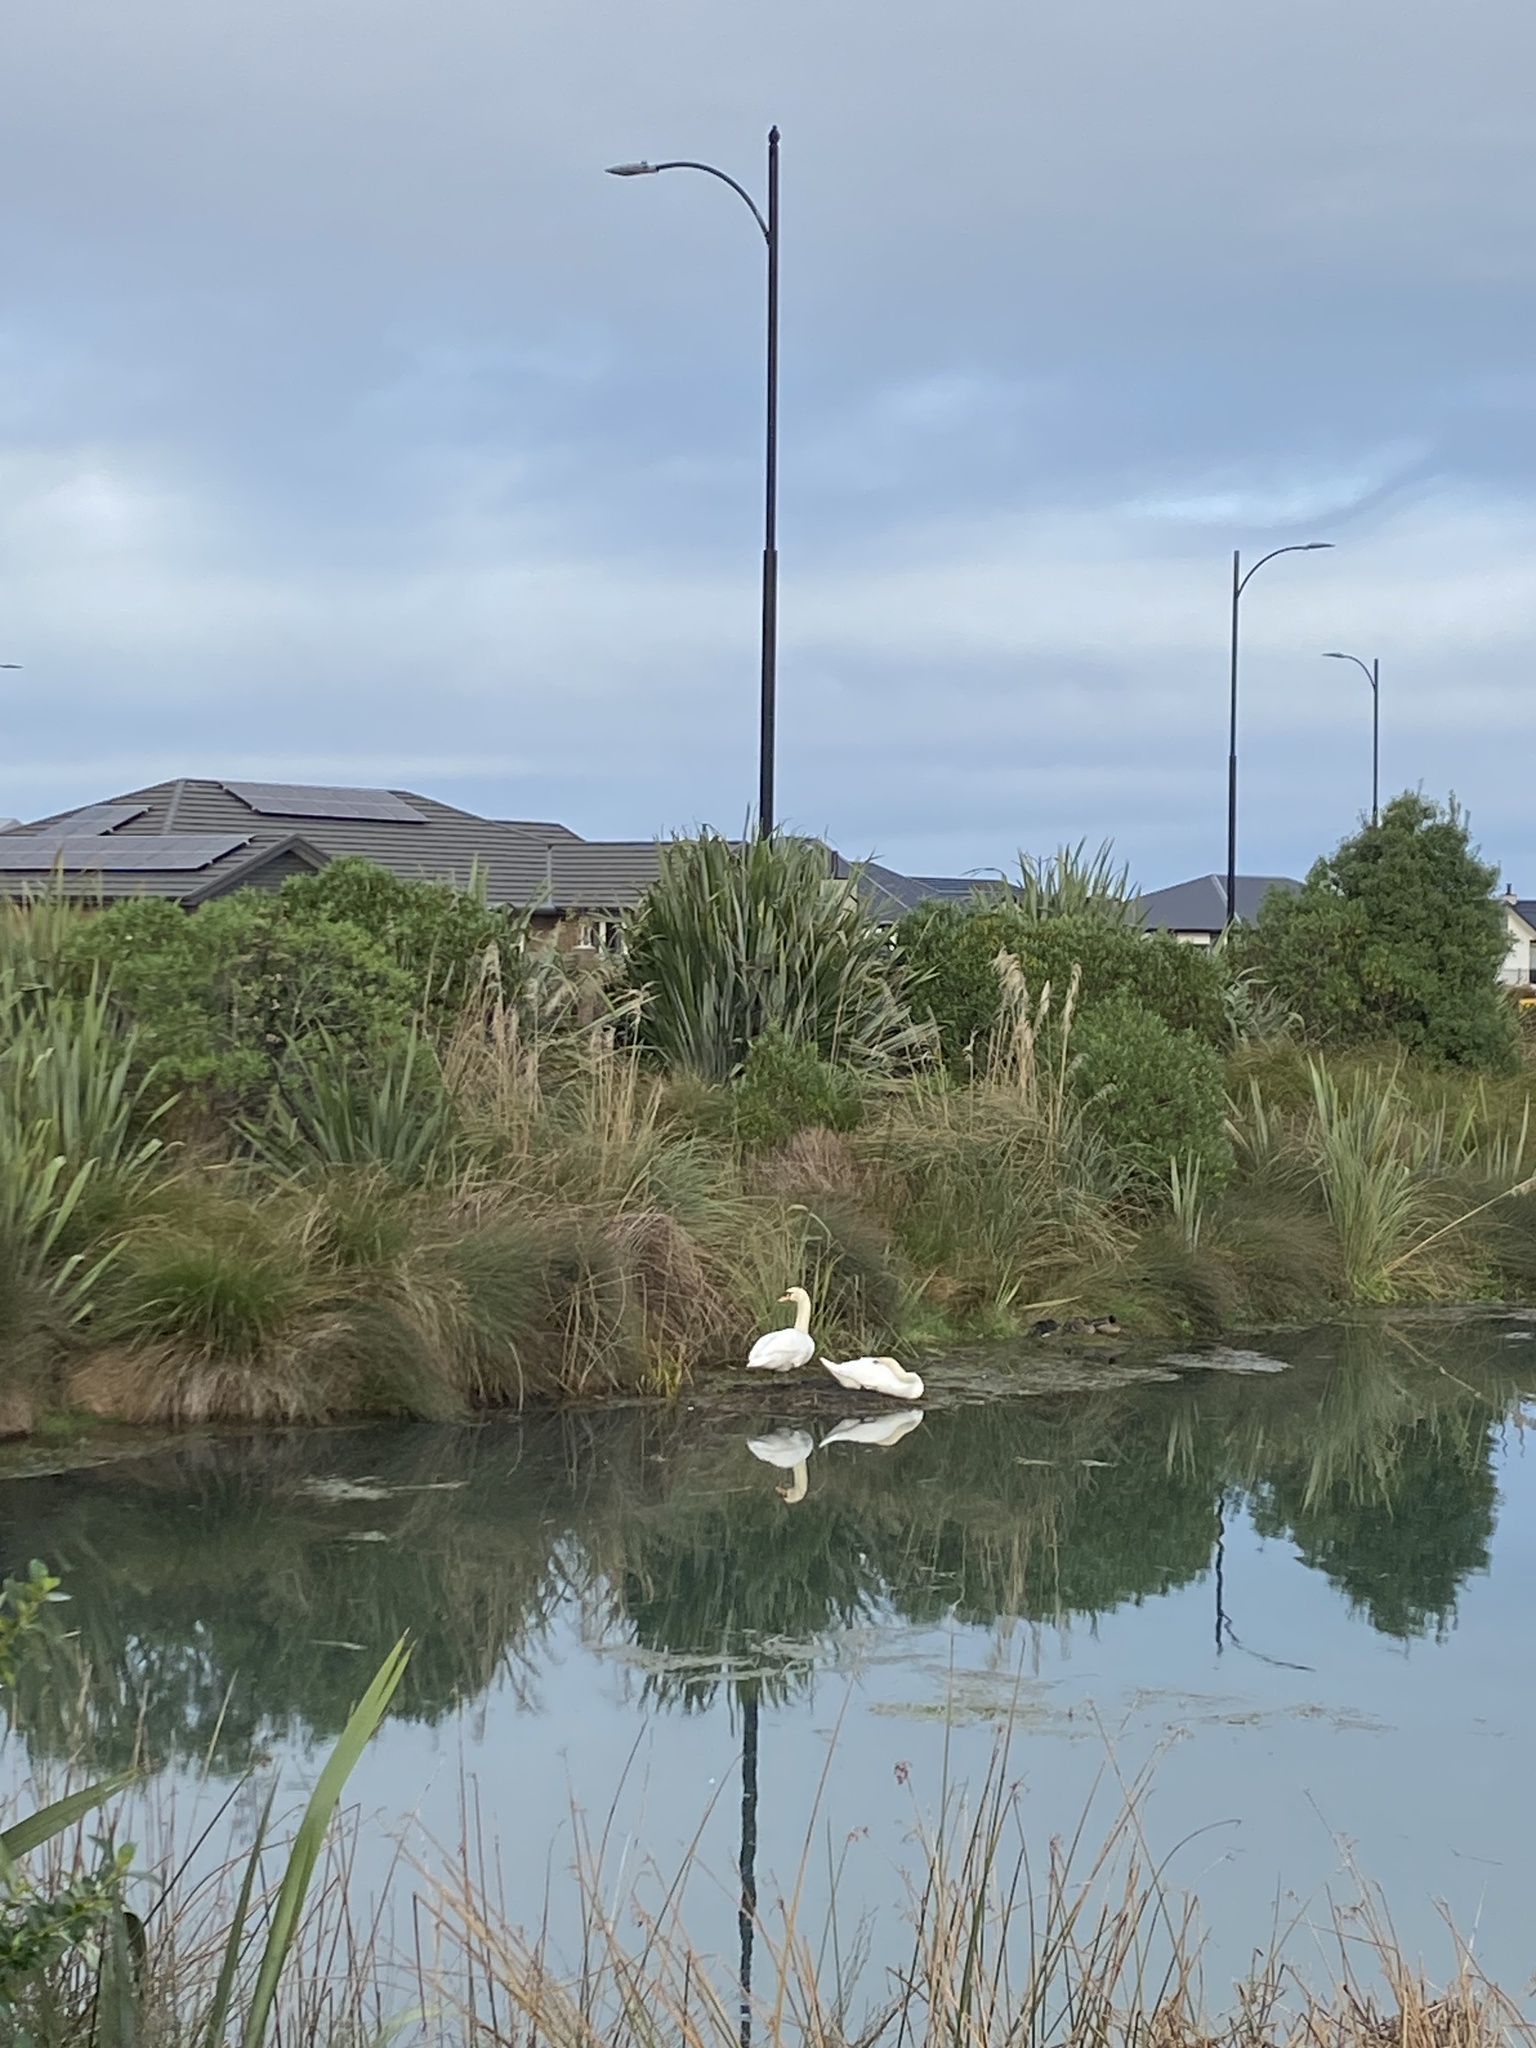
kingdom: Animalia
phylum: Chordata
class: Aves
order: Anseriformes
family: Anatidae
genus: Cygnus
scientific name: Cygnus olor
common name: Mute swan
